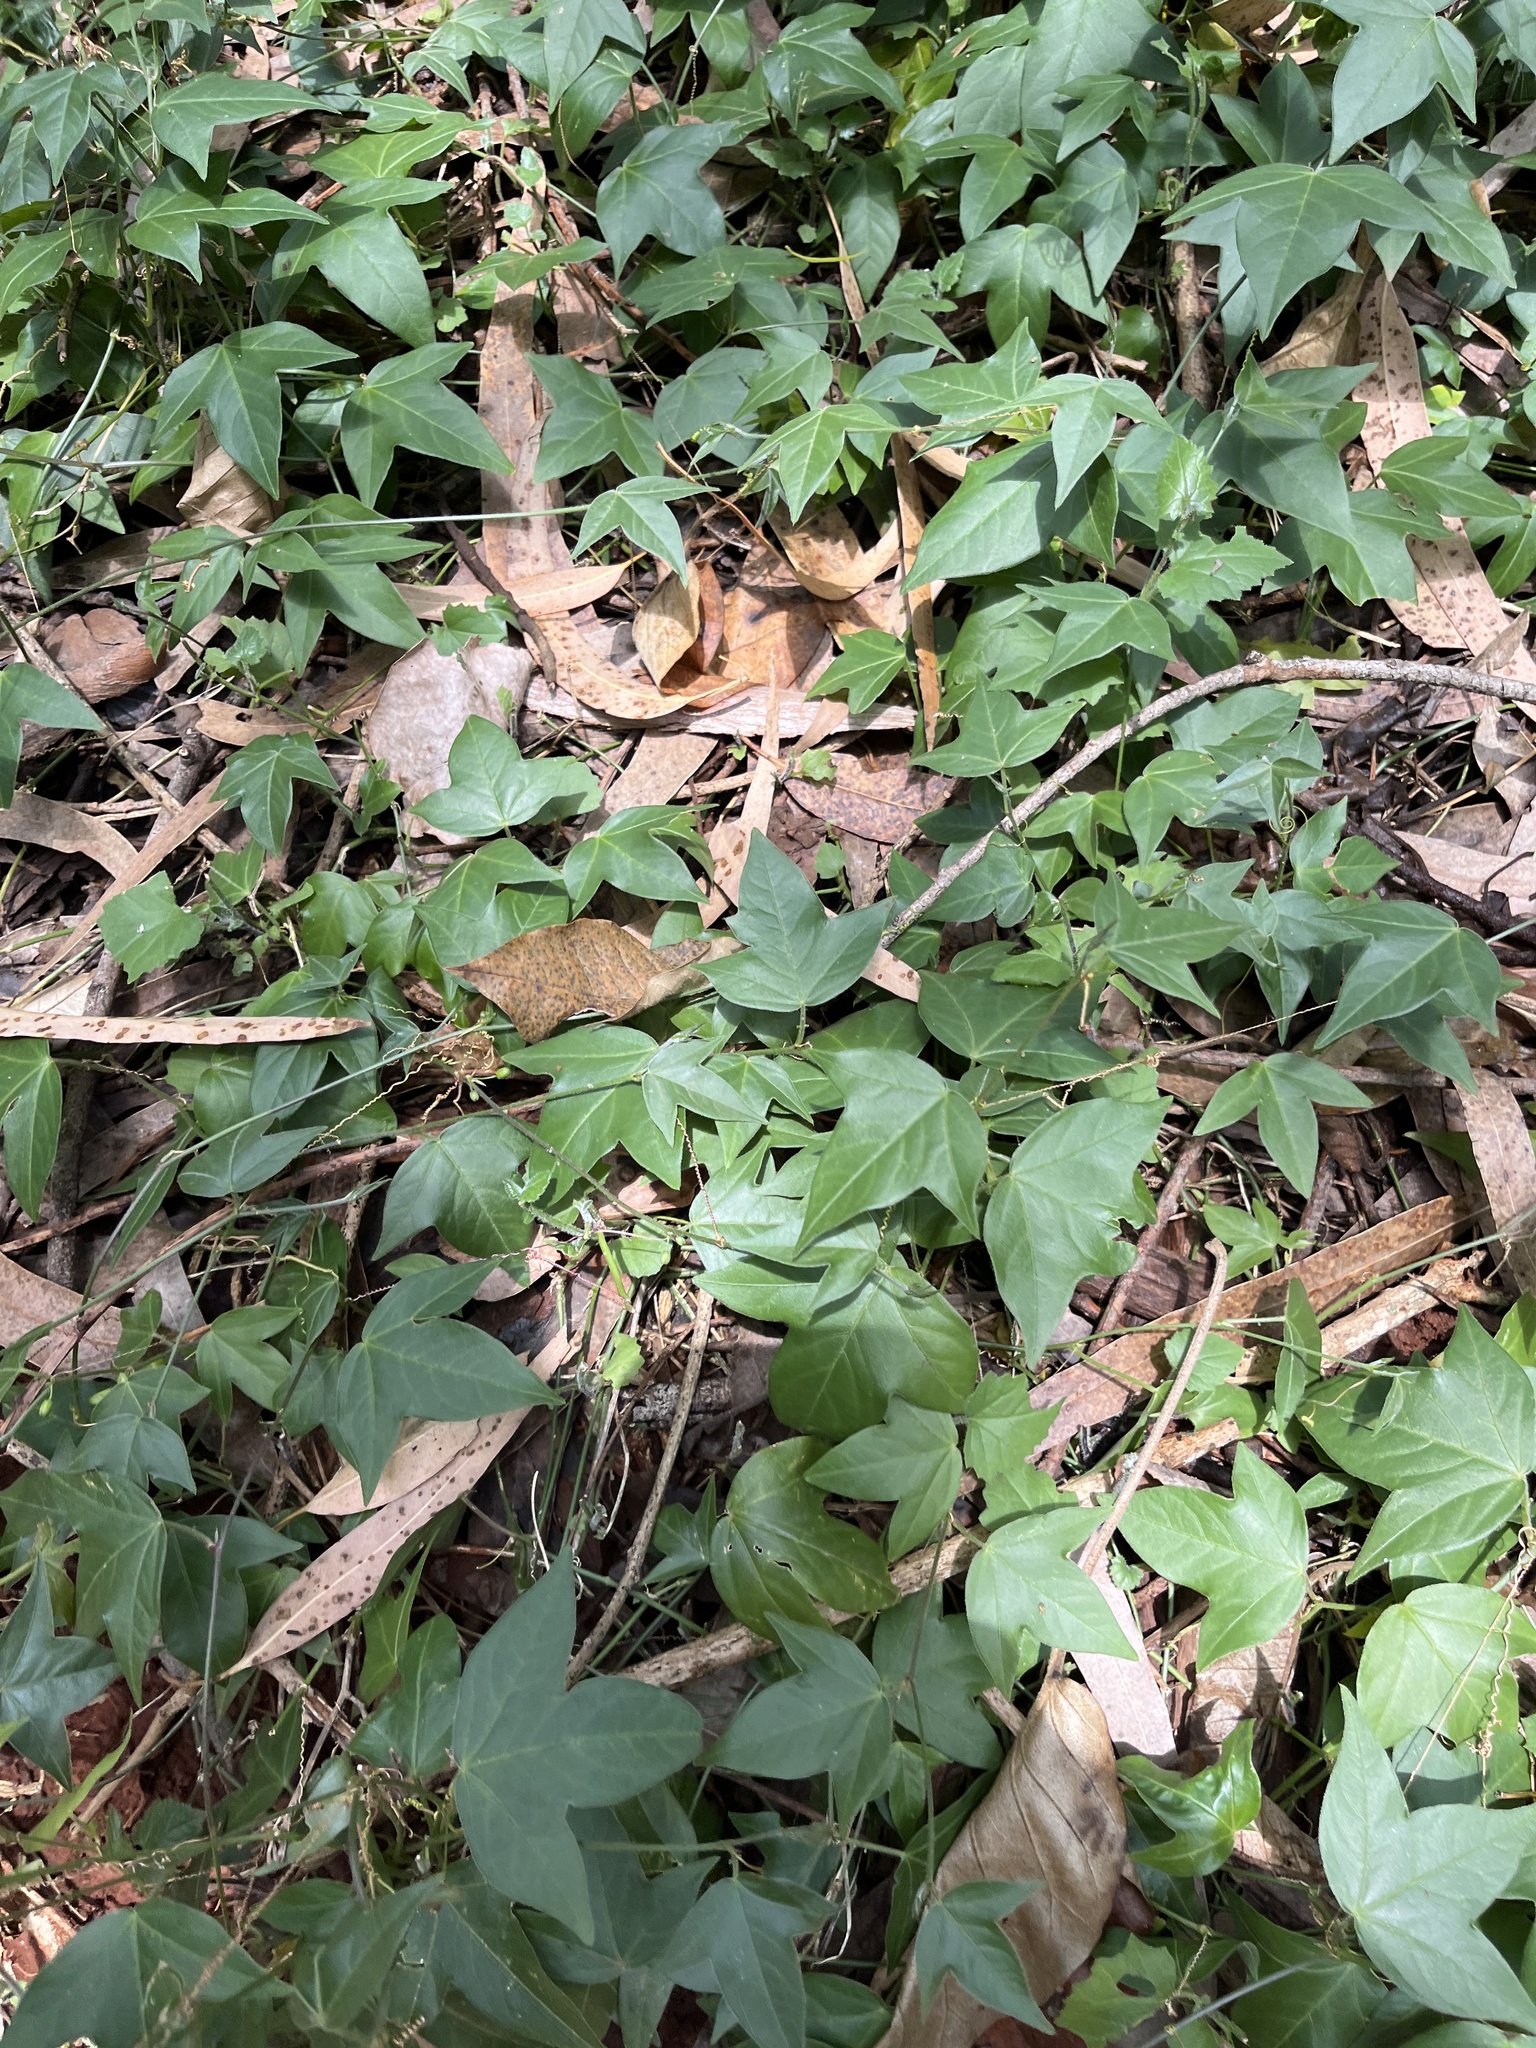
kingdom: Plantae
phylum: Tracheophyta
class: Magnoliopsida
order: Malpighiales
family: Passifloraceae
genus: Passiflora
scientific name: Passiflora suberosa
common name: Wild passionfruit
